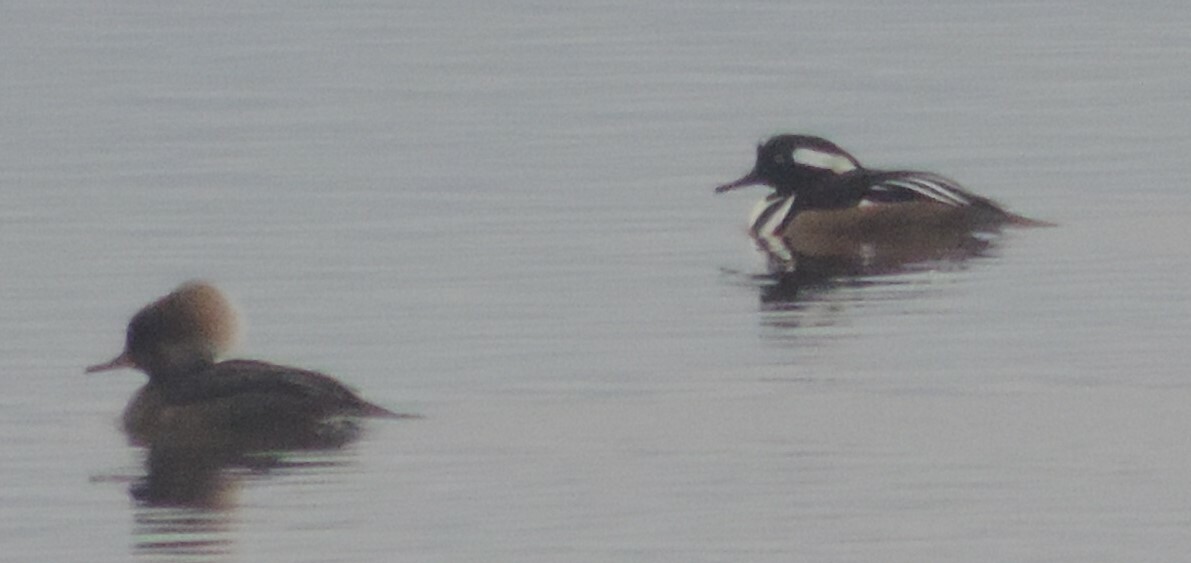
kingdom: Animalia
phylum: Chordata
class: Aves
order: Anseriformes
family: Anatidae
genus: Lophodytes
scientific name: Lophodytes cucullatus
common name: Hooded merganser
